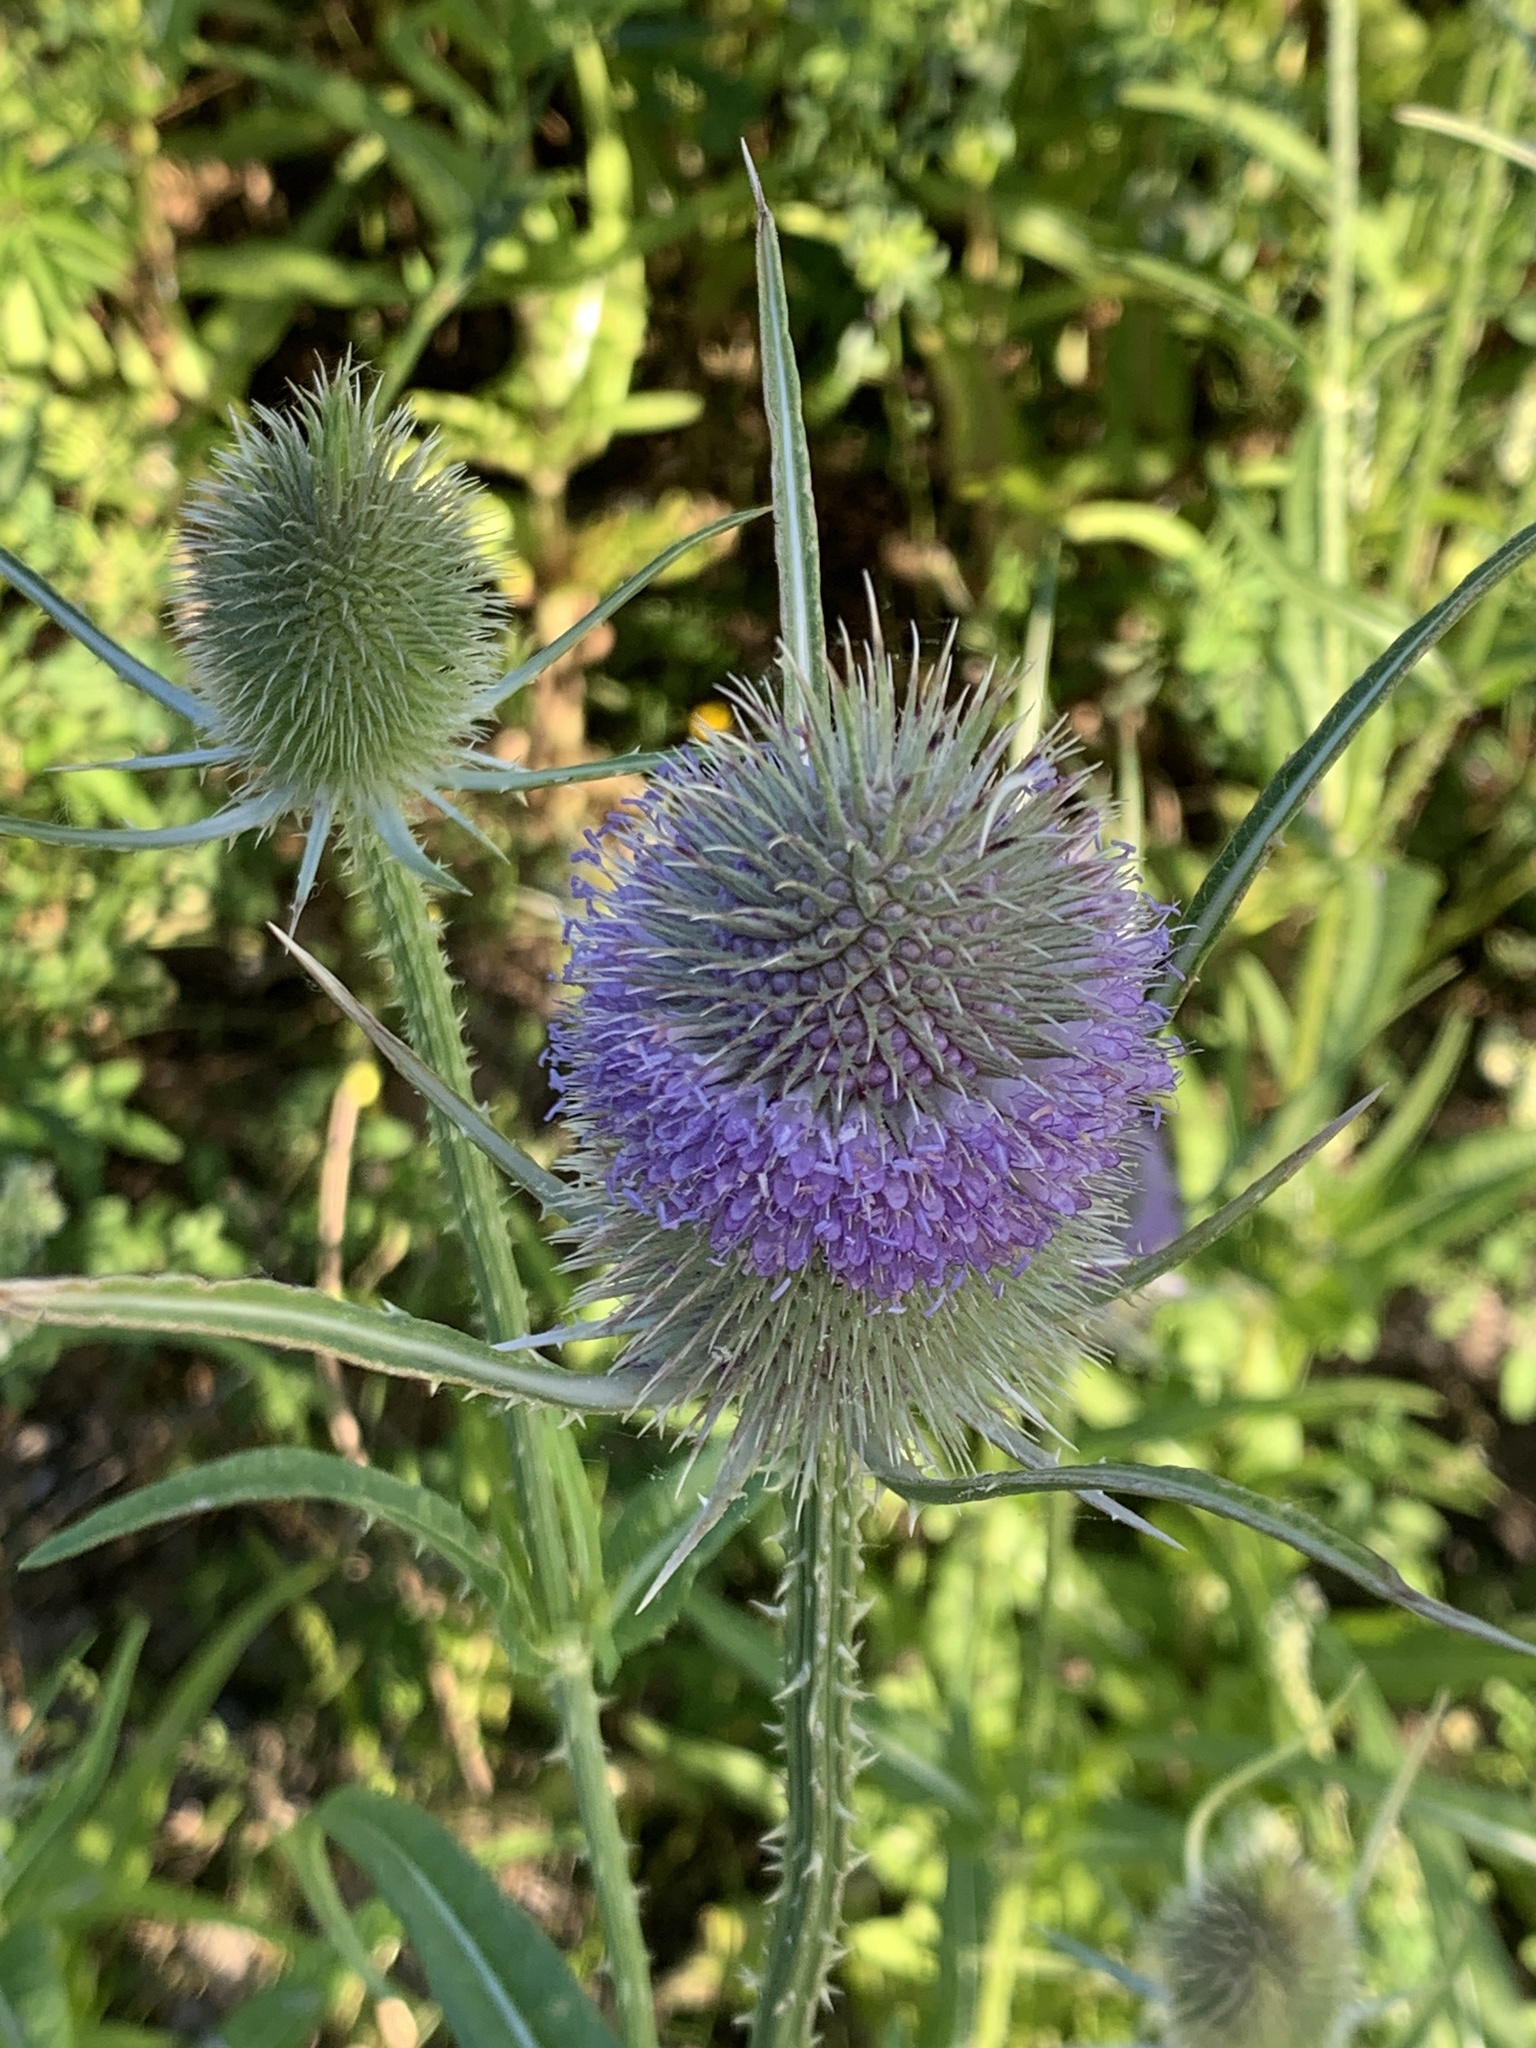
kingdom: Plantae
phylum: Tracheophyta
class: Magnoliopsida
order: Dipsacales
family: Caprifoliaceae
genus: Dipsacus
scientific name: Dipsacus fullonum
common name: Teasel
